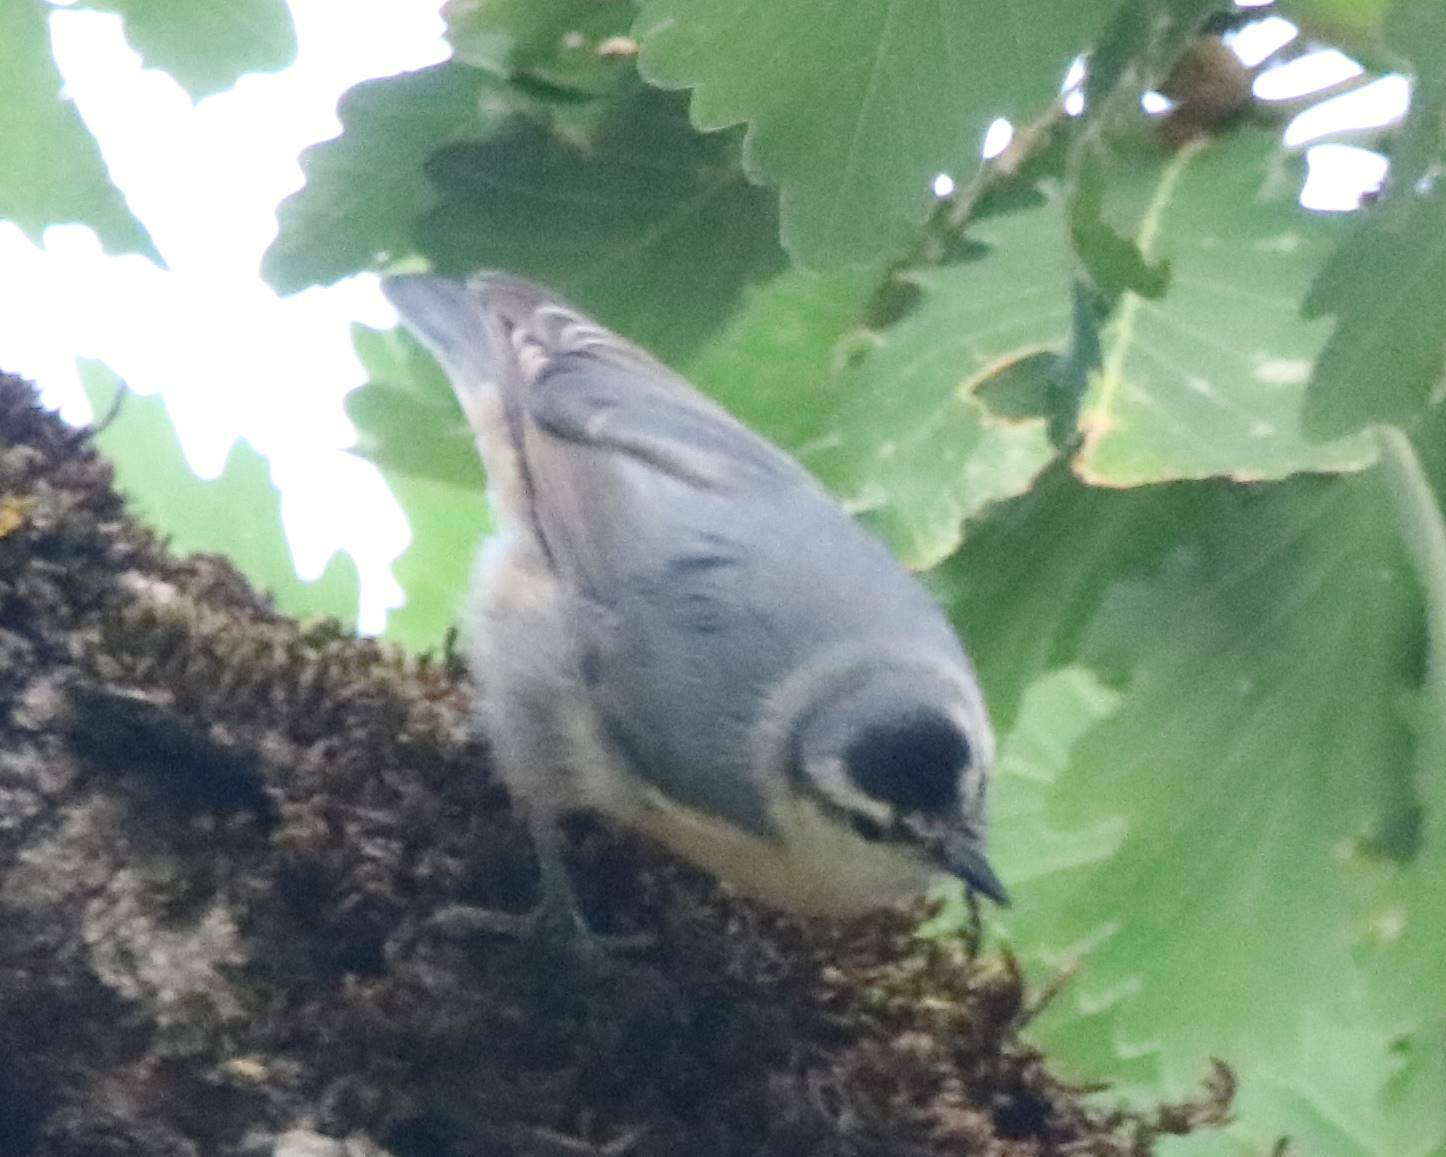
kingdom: Animalia
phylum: Chordata
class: Aves
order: Passeriformes
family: Sittidae
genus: Sitta
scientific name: Sitta ledanti
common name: Algerian nuthatch
